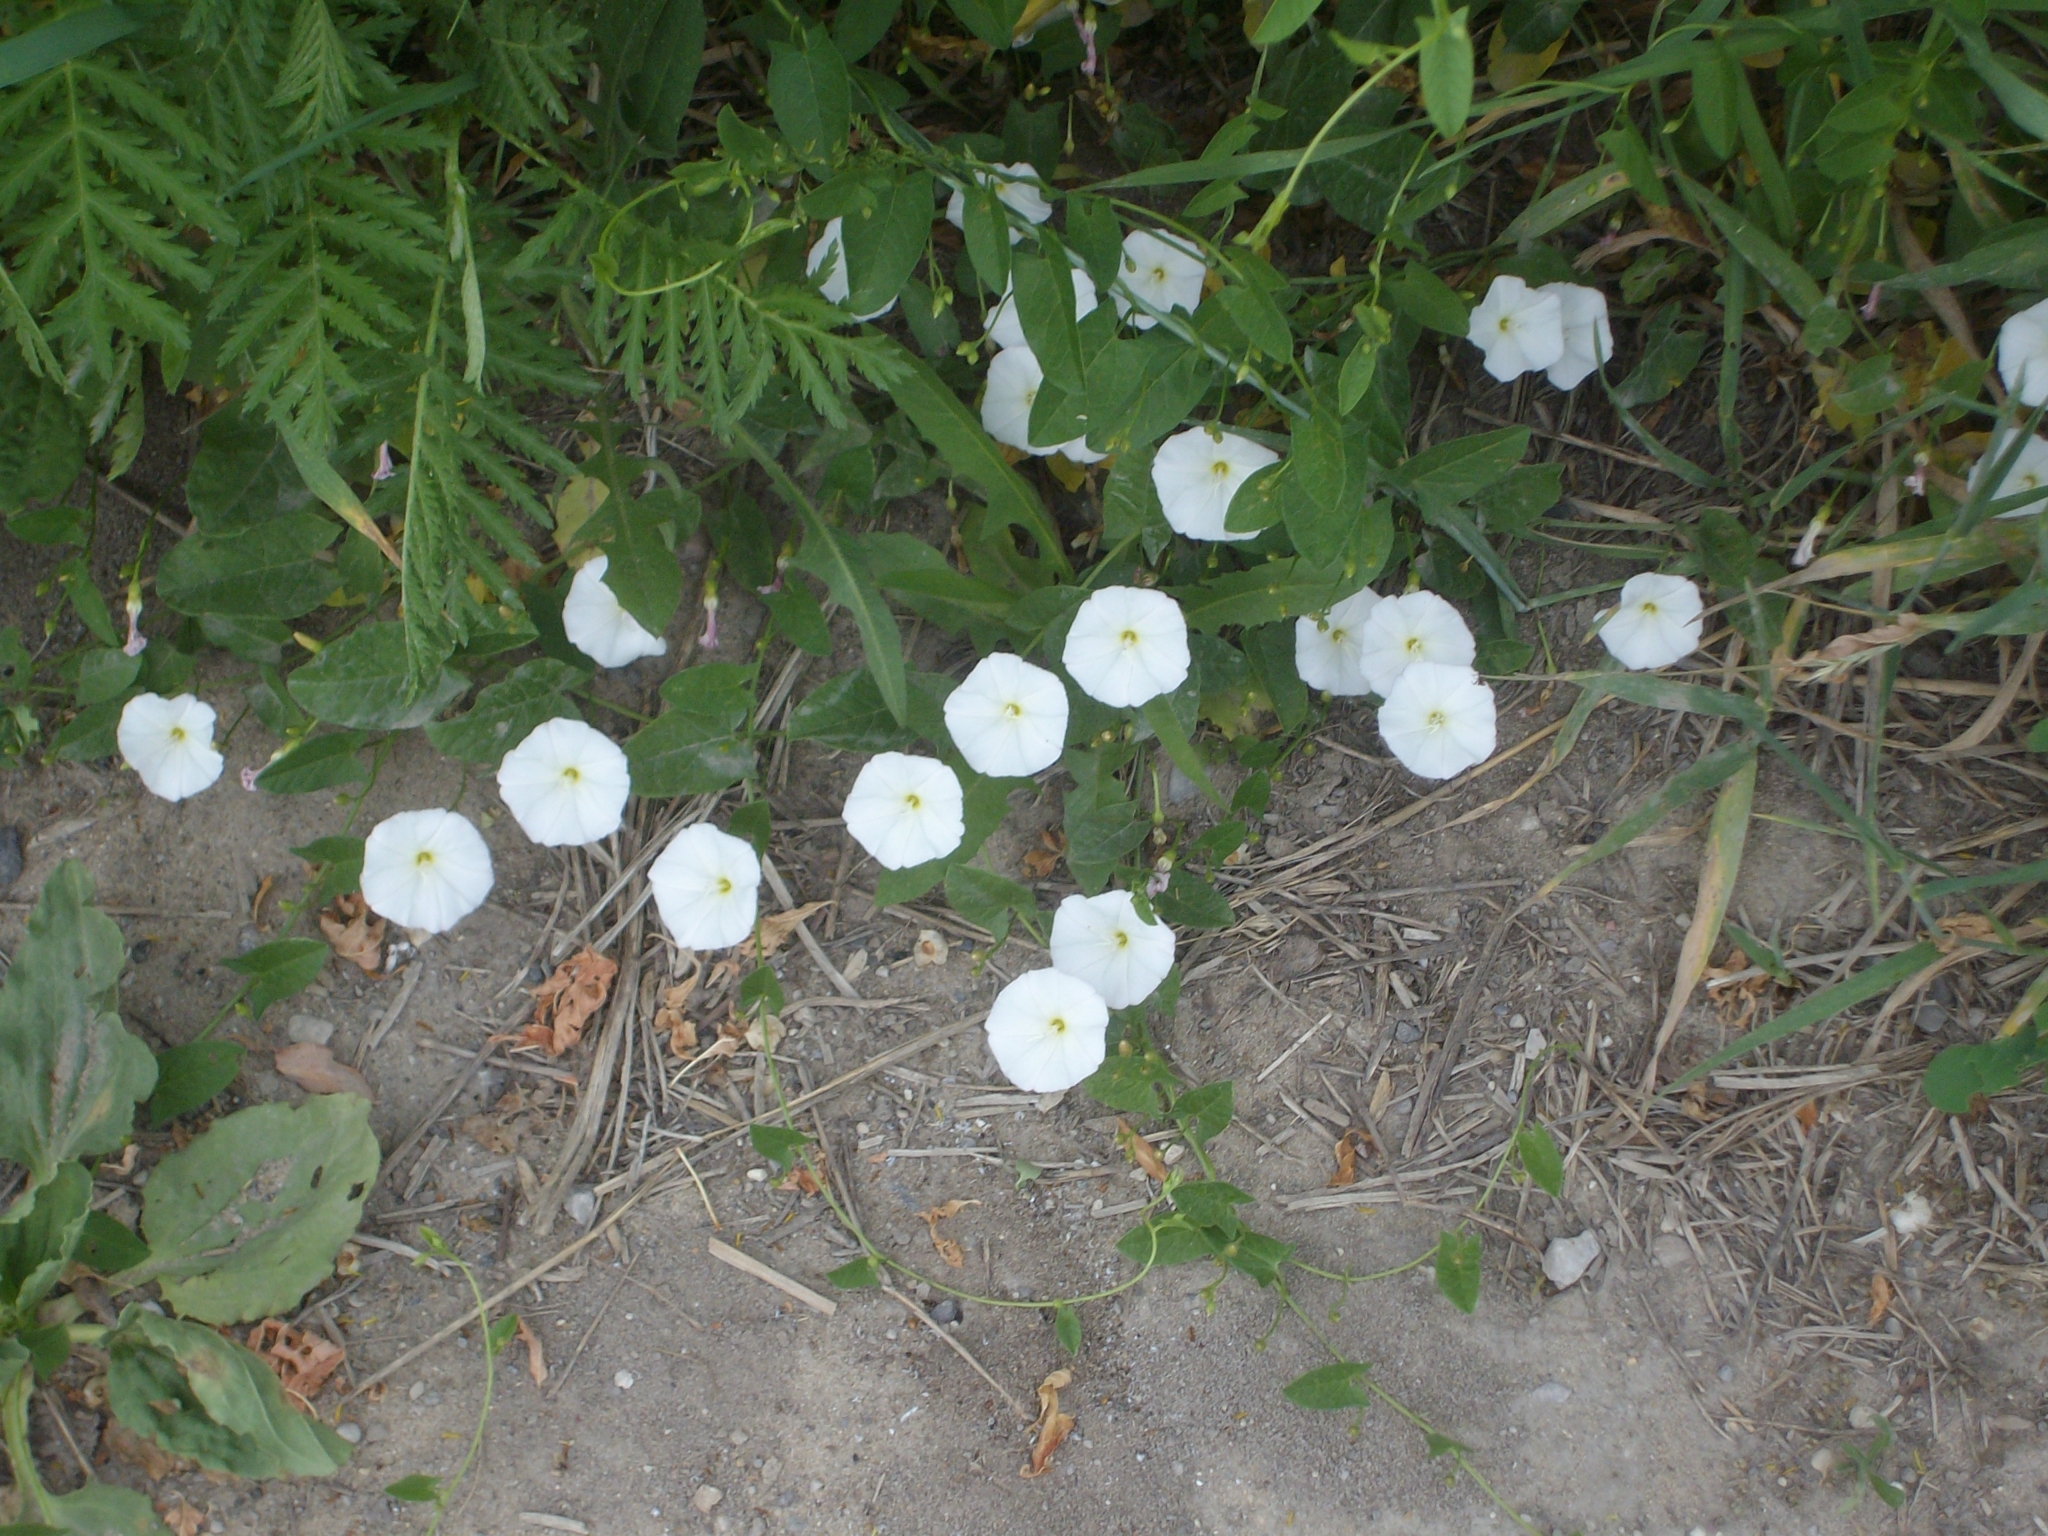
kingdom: Plantae
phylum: Tracheophyta
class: Magnoliopsida
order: Solanales
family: Convolvulaceae
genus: Convolvulus
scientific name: Convolvulus arvensis
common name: Field bindweed
